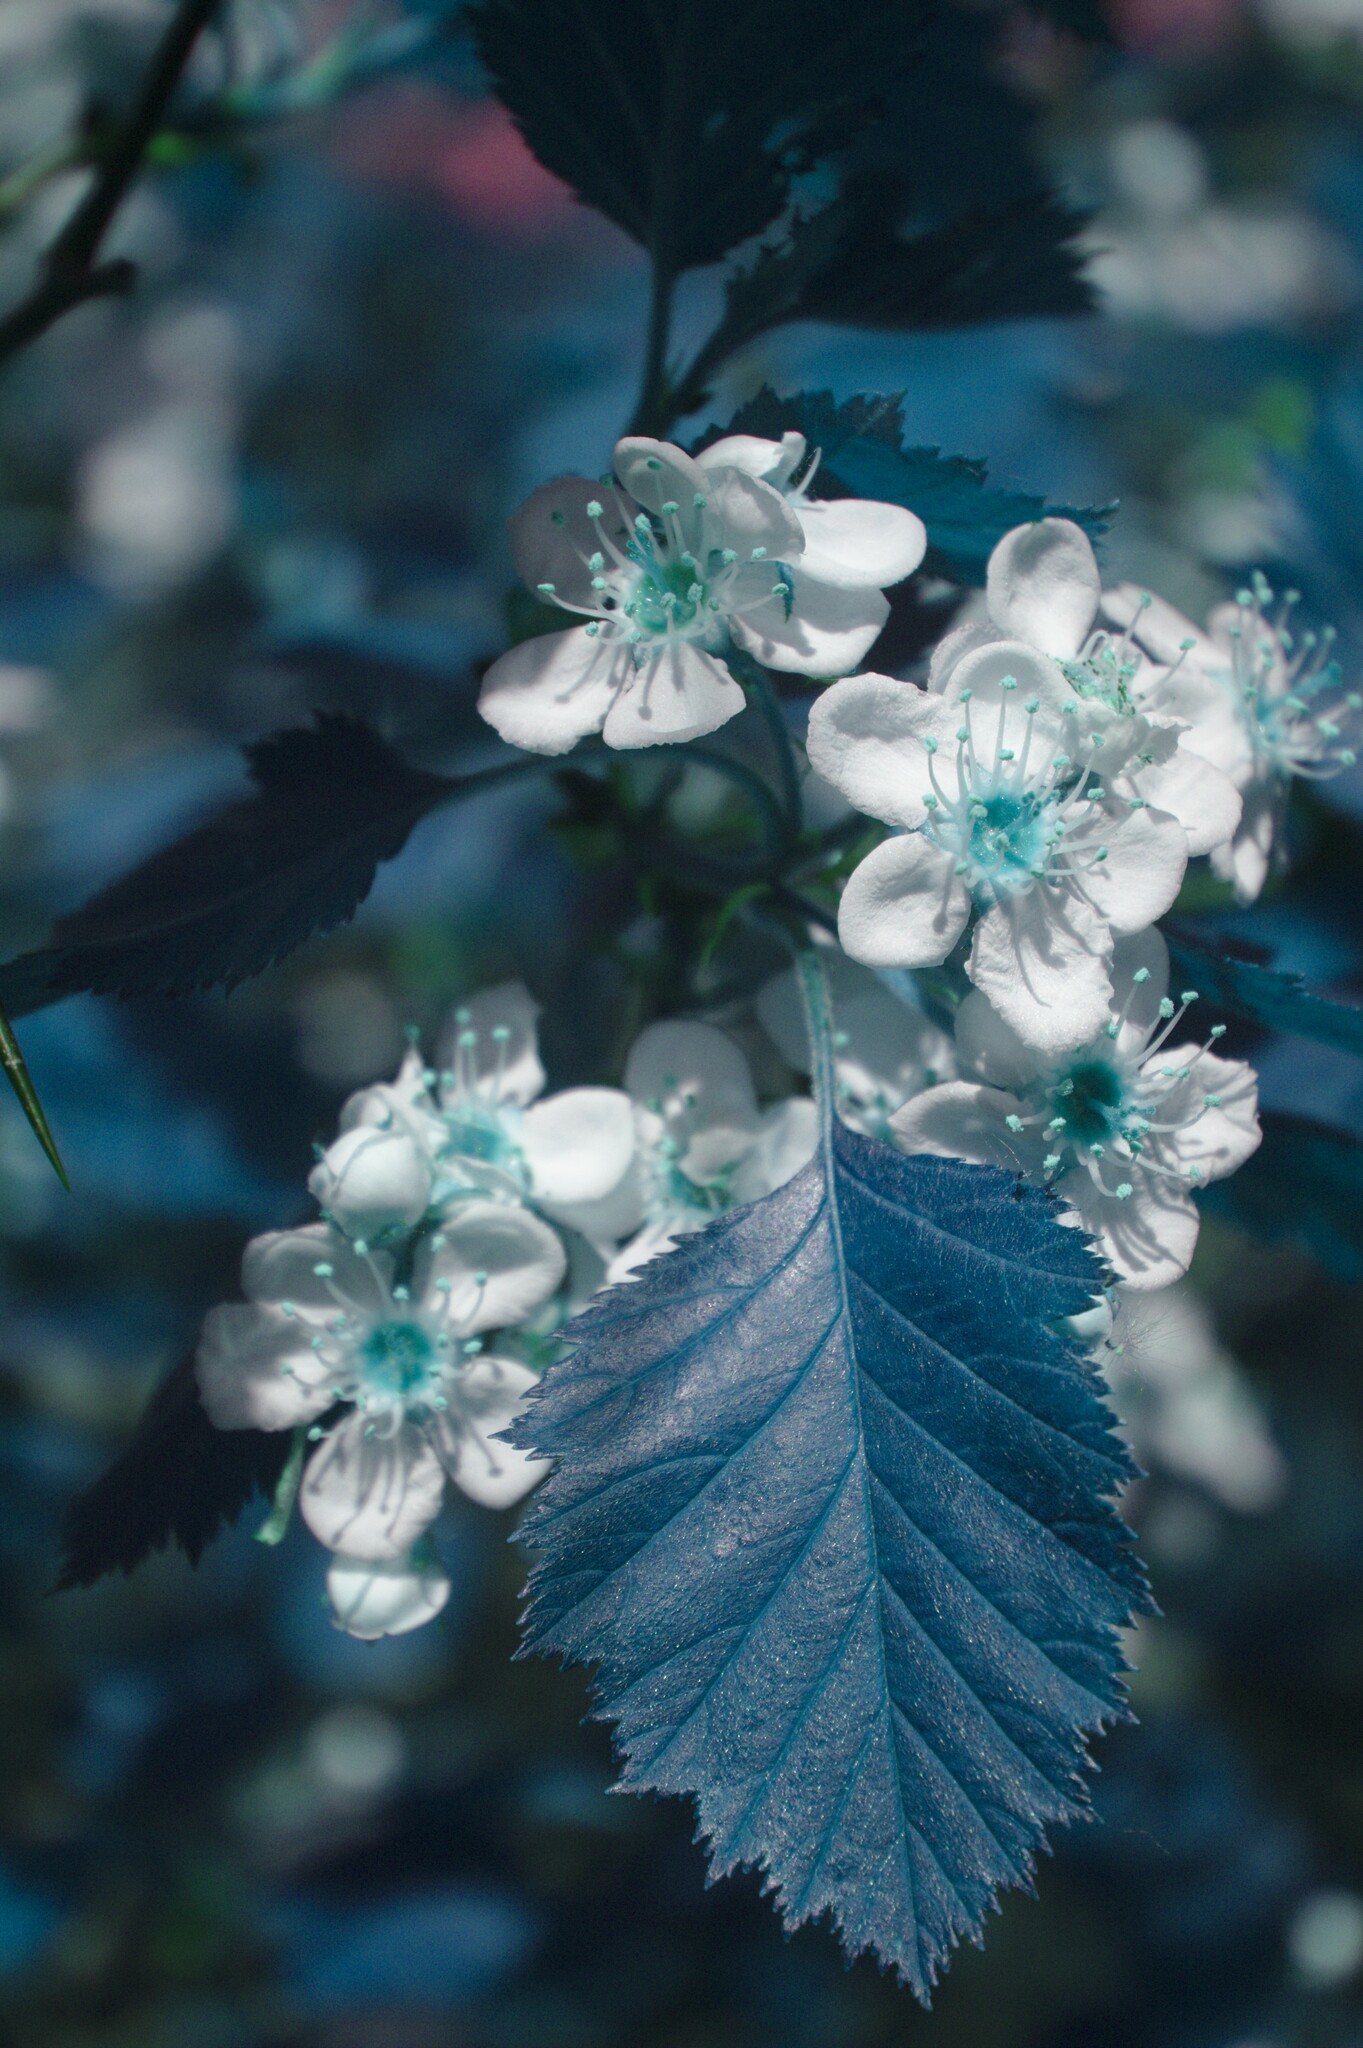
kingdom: Plantae
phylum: Tracheophyta
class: Magnoliopsida
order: Rosales
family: Rosaceae
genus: Crataegus
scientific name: Crataegus submollis
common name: Hairy cockspurthorn
